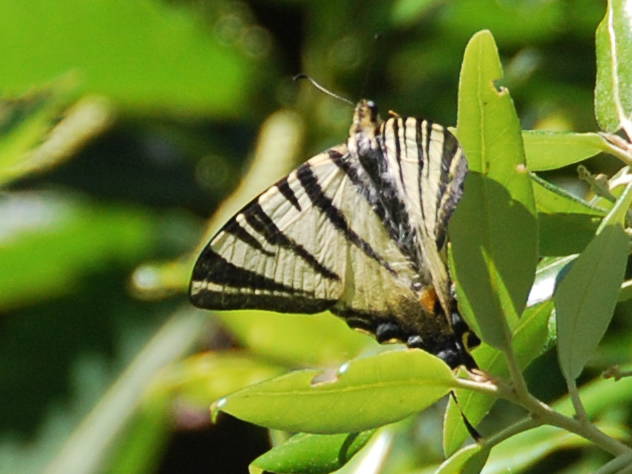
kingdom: Animalia
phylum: Arthropoda
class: Insecta
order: Lepidoptera
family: Papilionidae
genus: Iphiclides
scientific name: Iphiclides podalirius
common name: Scarce swallowtail
